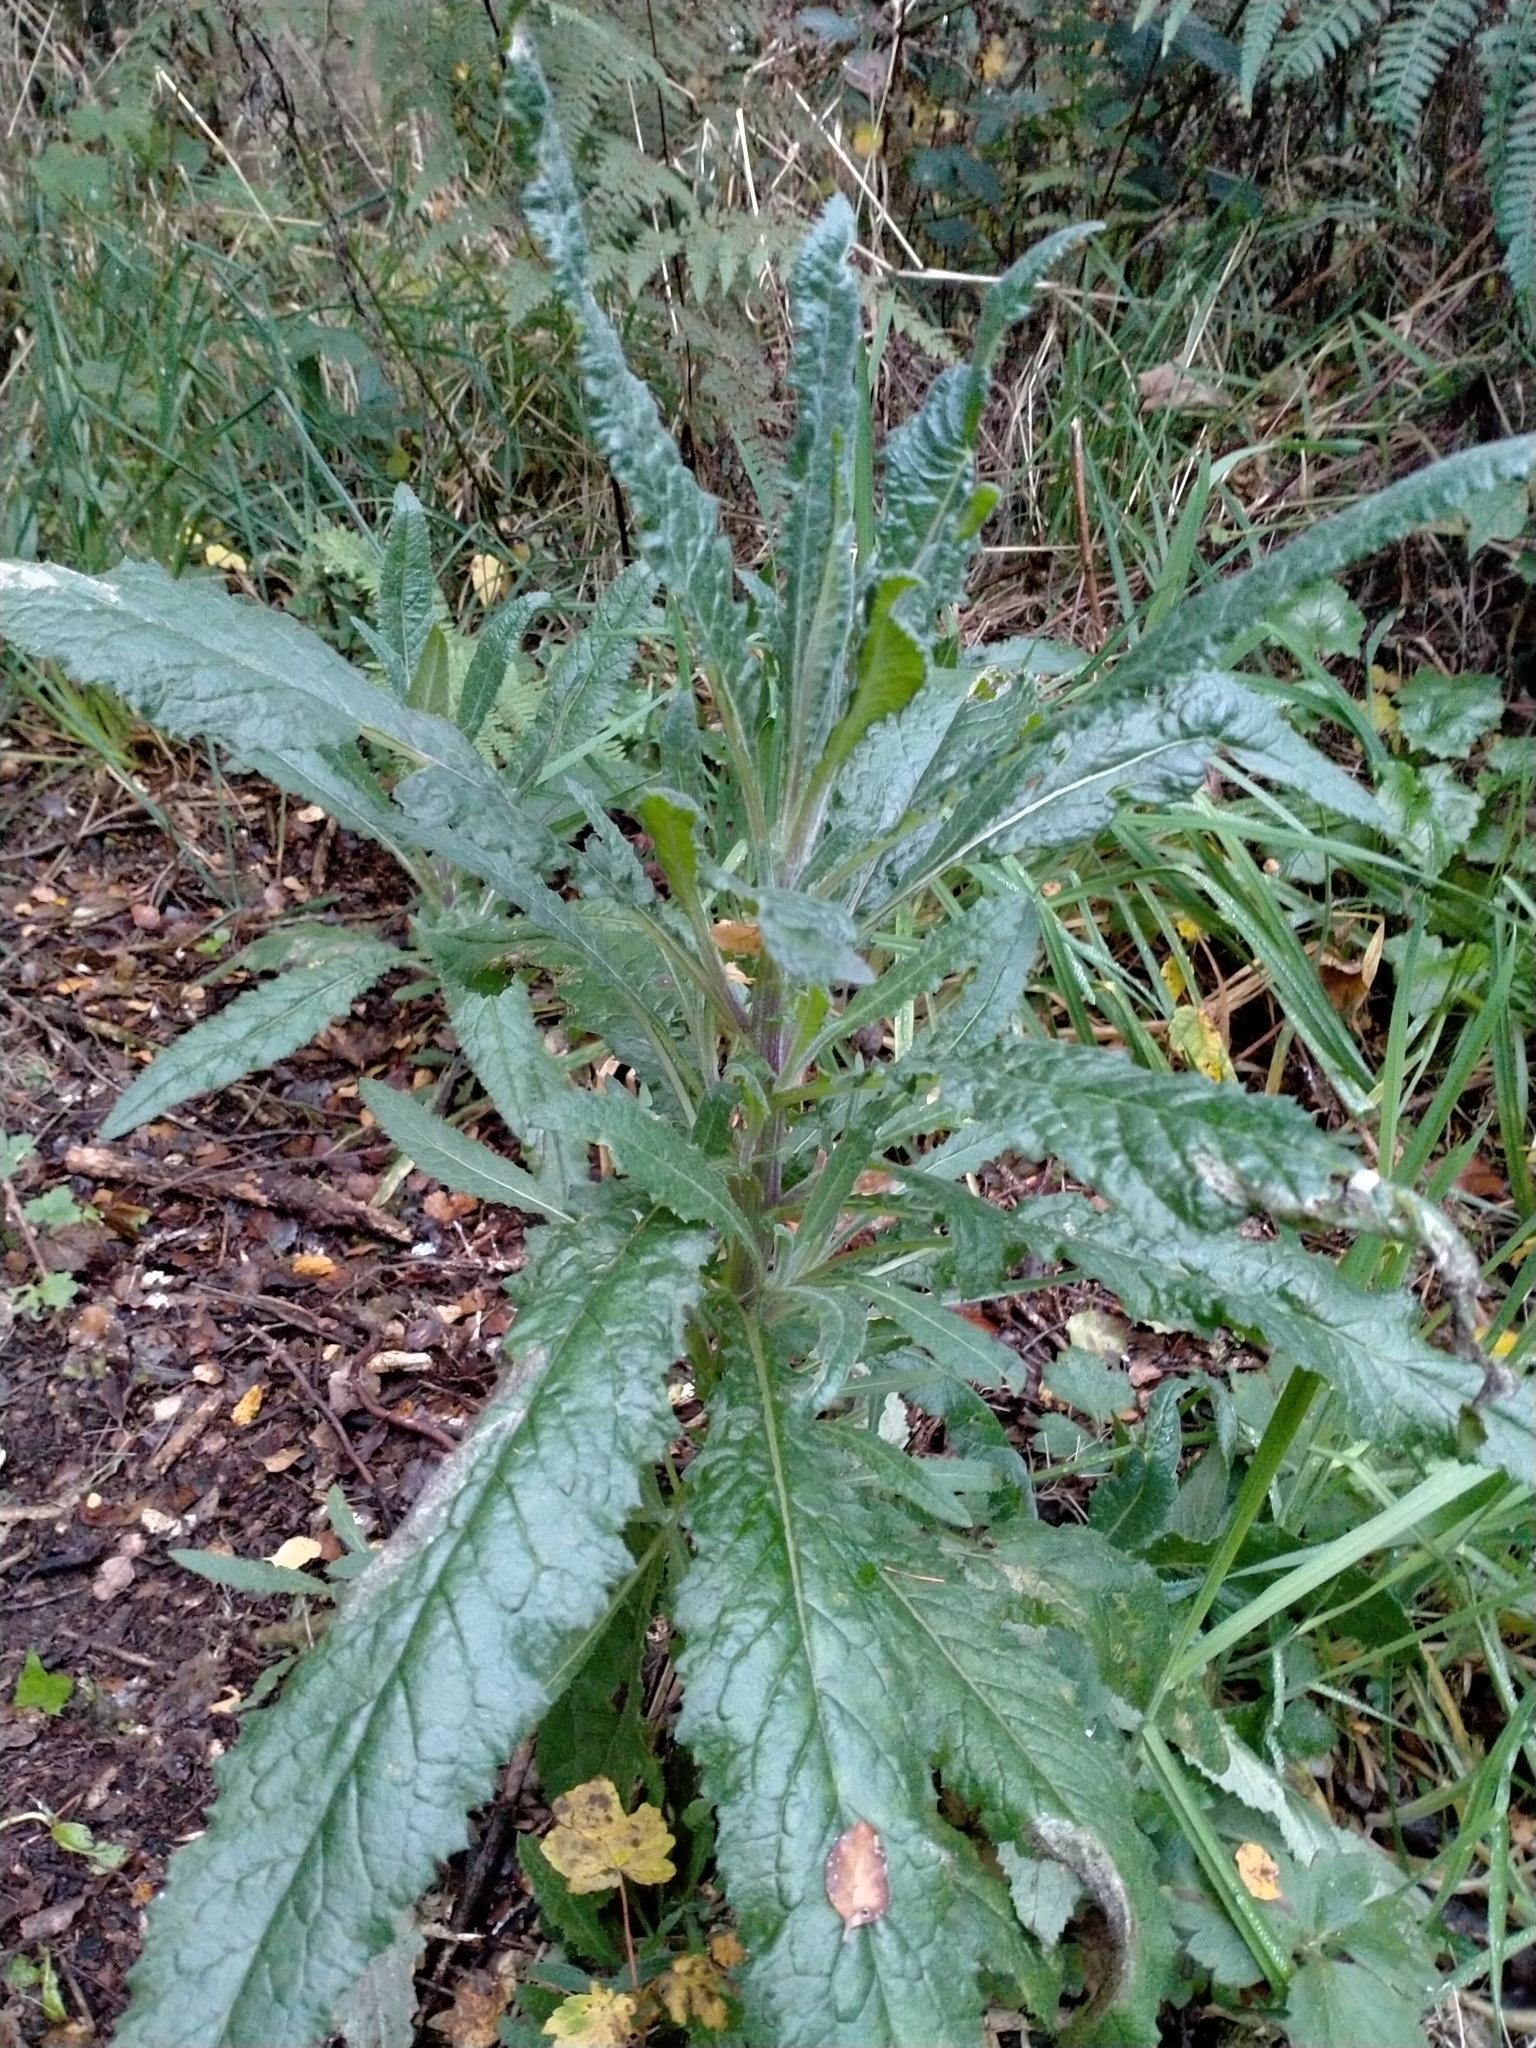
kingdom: Plantae
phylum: Tracheophyta
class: Magnoliopsida
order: Asterales
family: Asteraceae
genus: Senecio
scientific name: Senecio minimus
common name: Toothed fireweed
